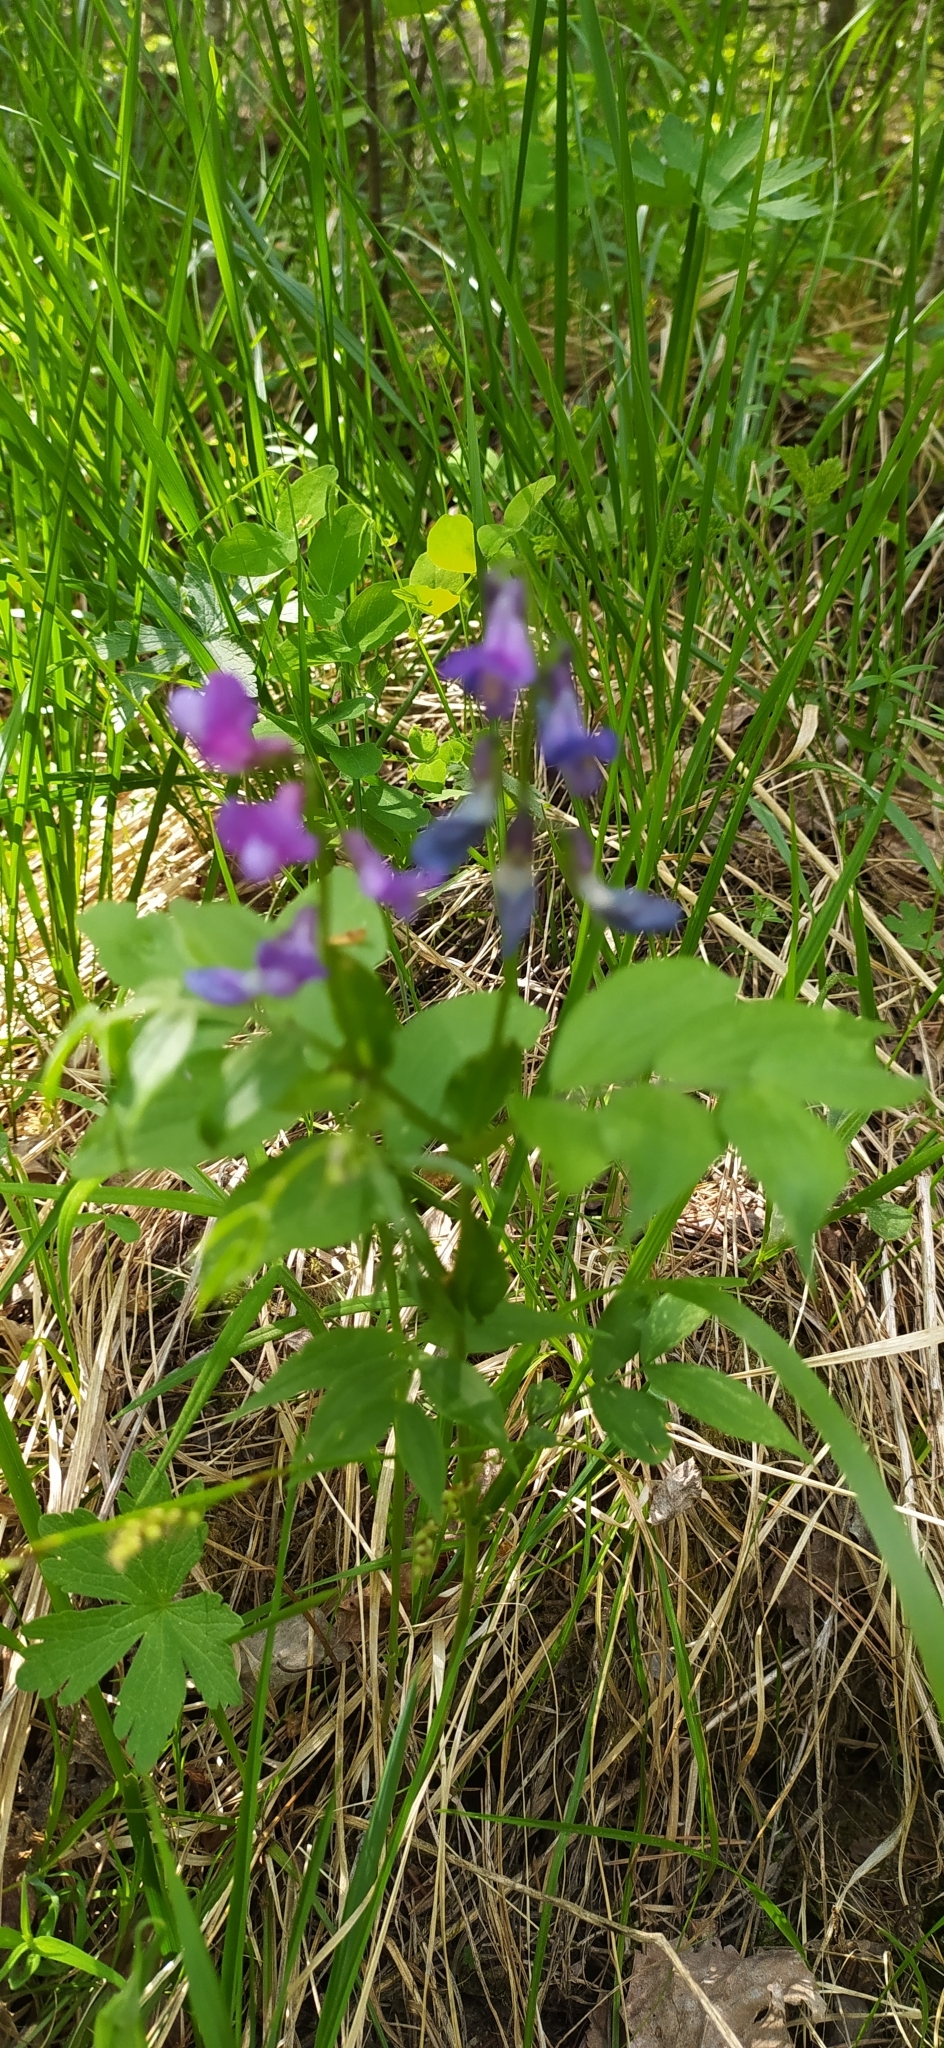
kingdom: Plantae
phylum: Tracheophyta
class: Magnoliopsida
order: Fabales
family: Fabaceae
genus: Lathyrus
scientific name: Lathyrus vernus
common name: Spring pea
